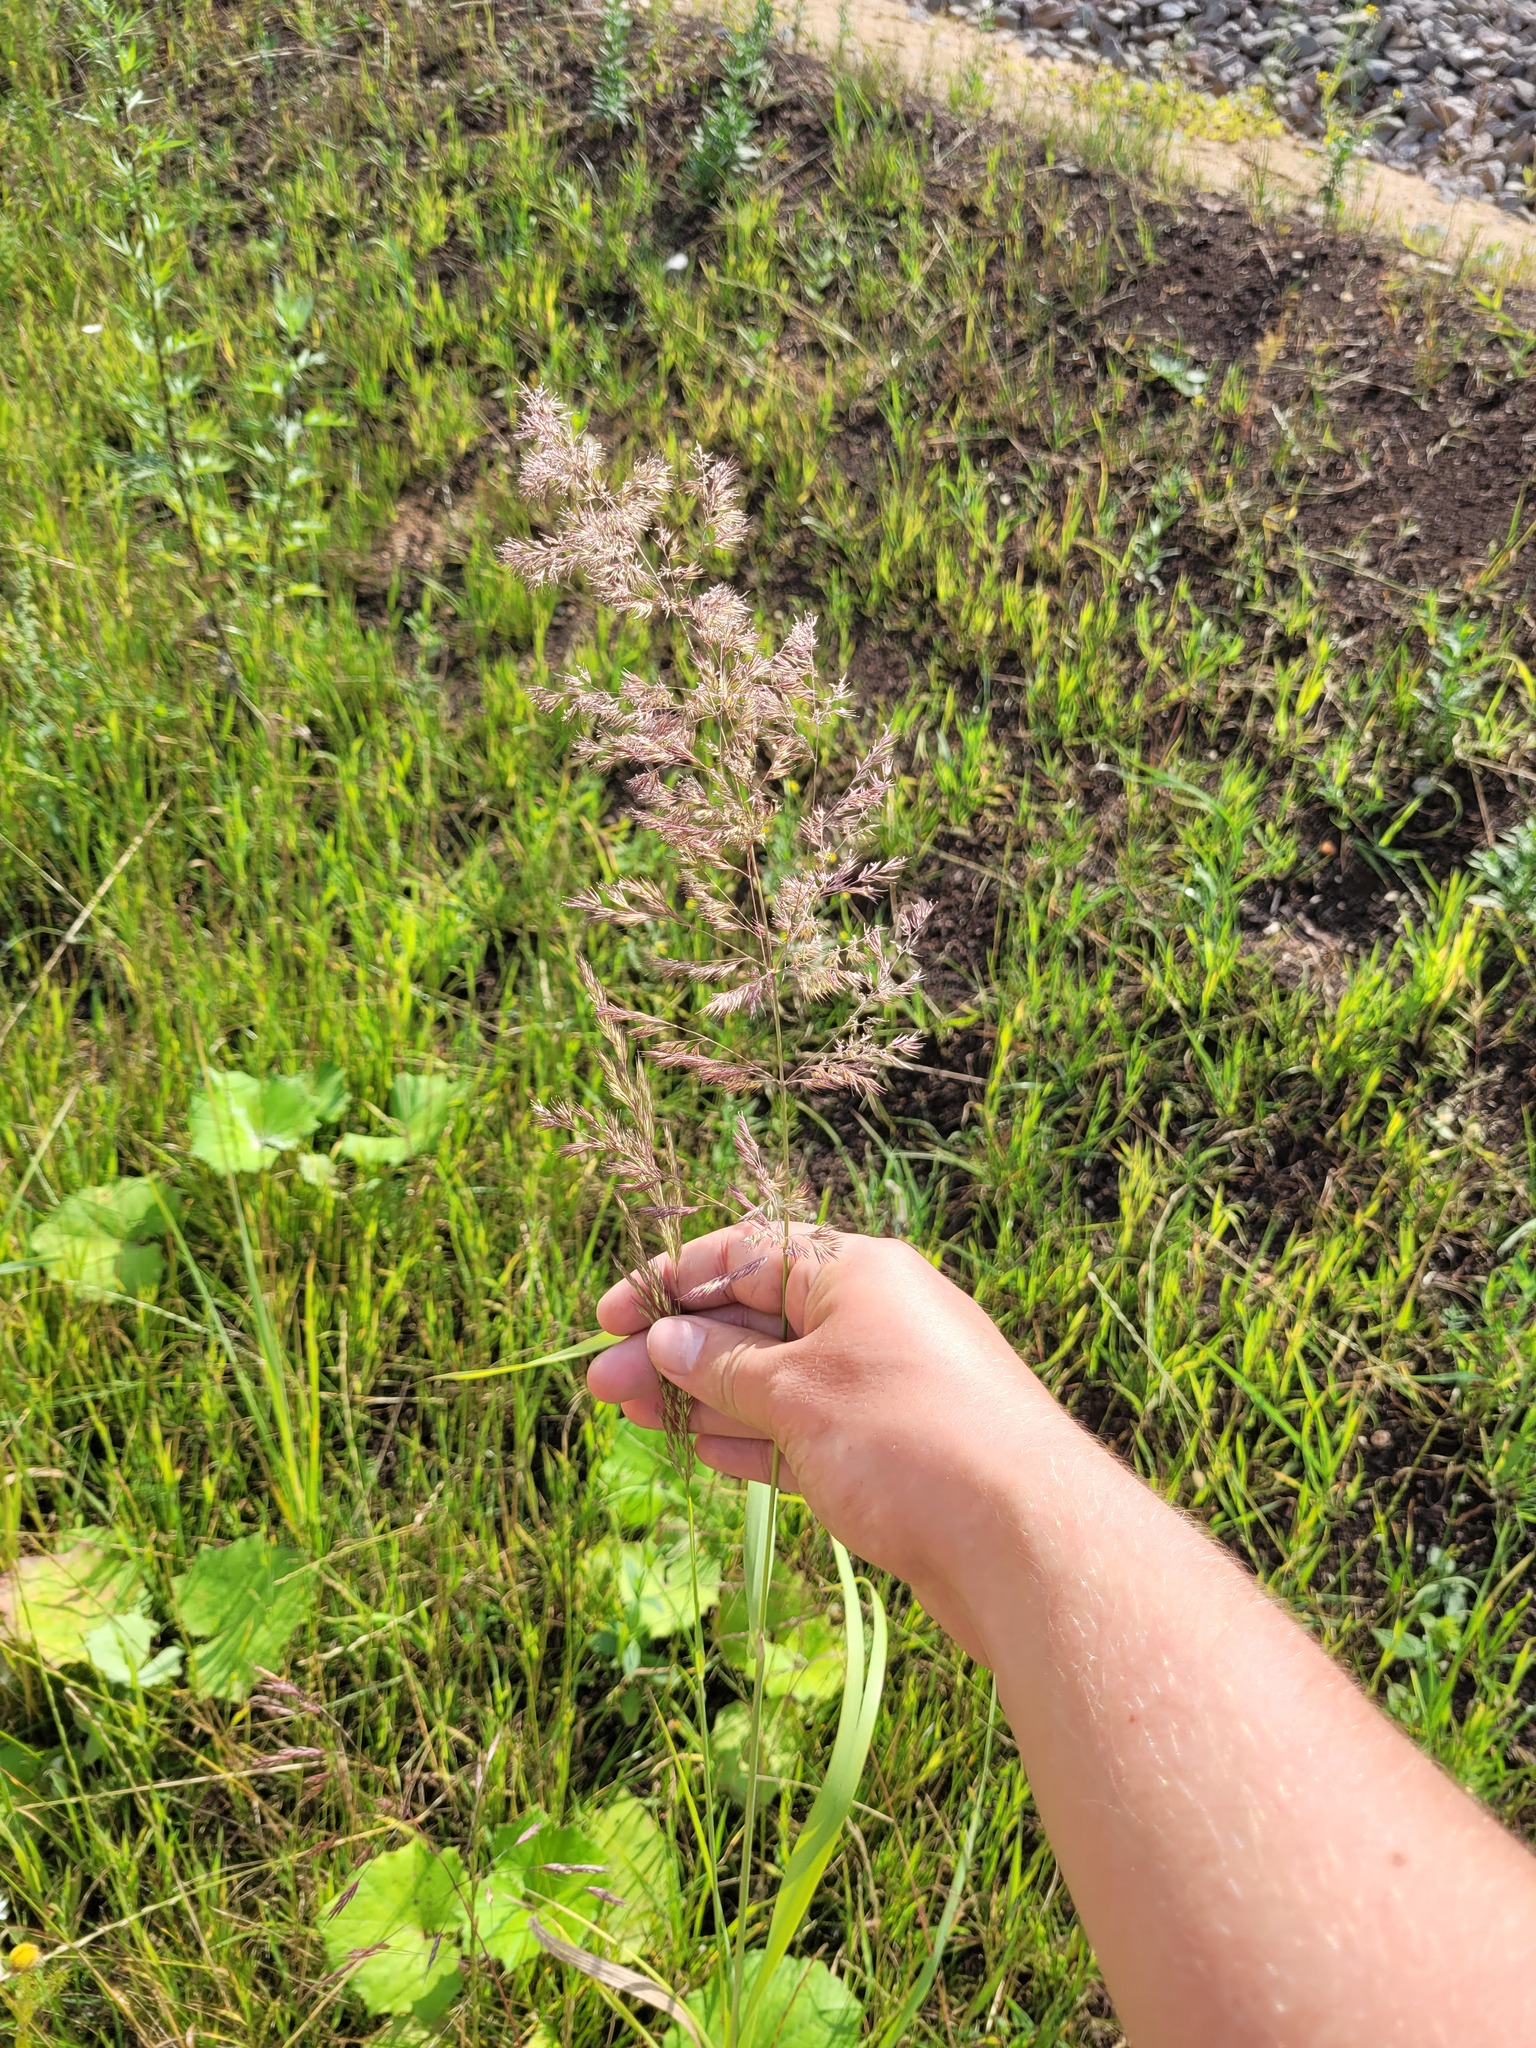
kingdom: Plantae
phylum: Tracheophyta
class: Liliopsida
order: Poales
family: Poaceae
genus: Calamagrostis
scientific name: Calamagrostis epigejos
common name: Wood small-reed
